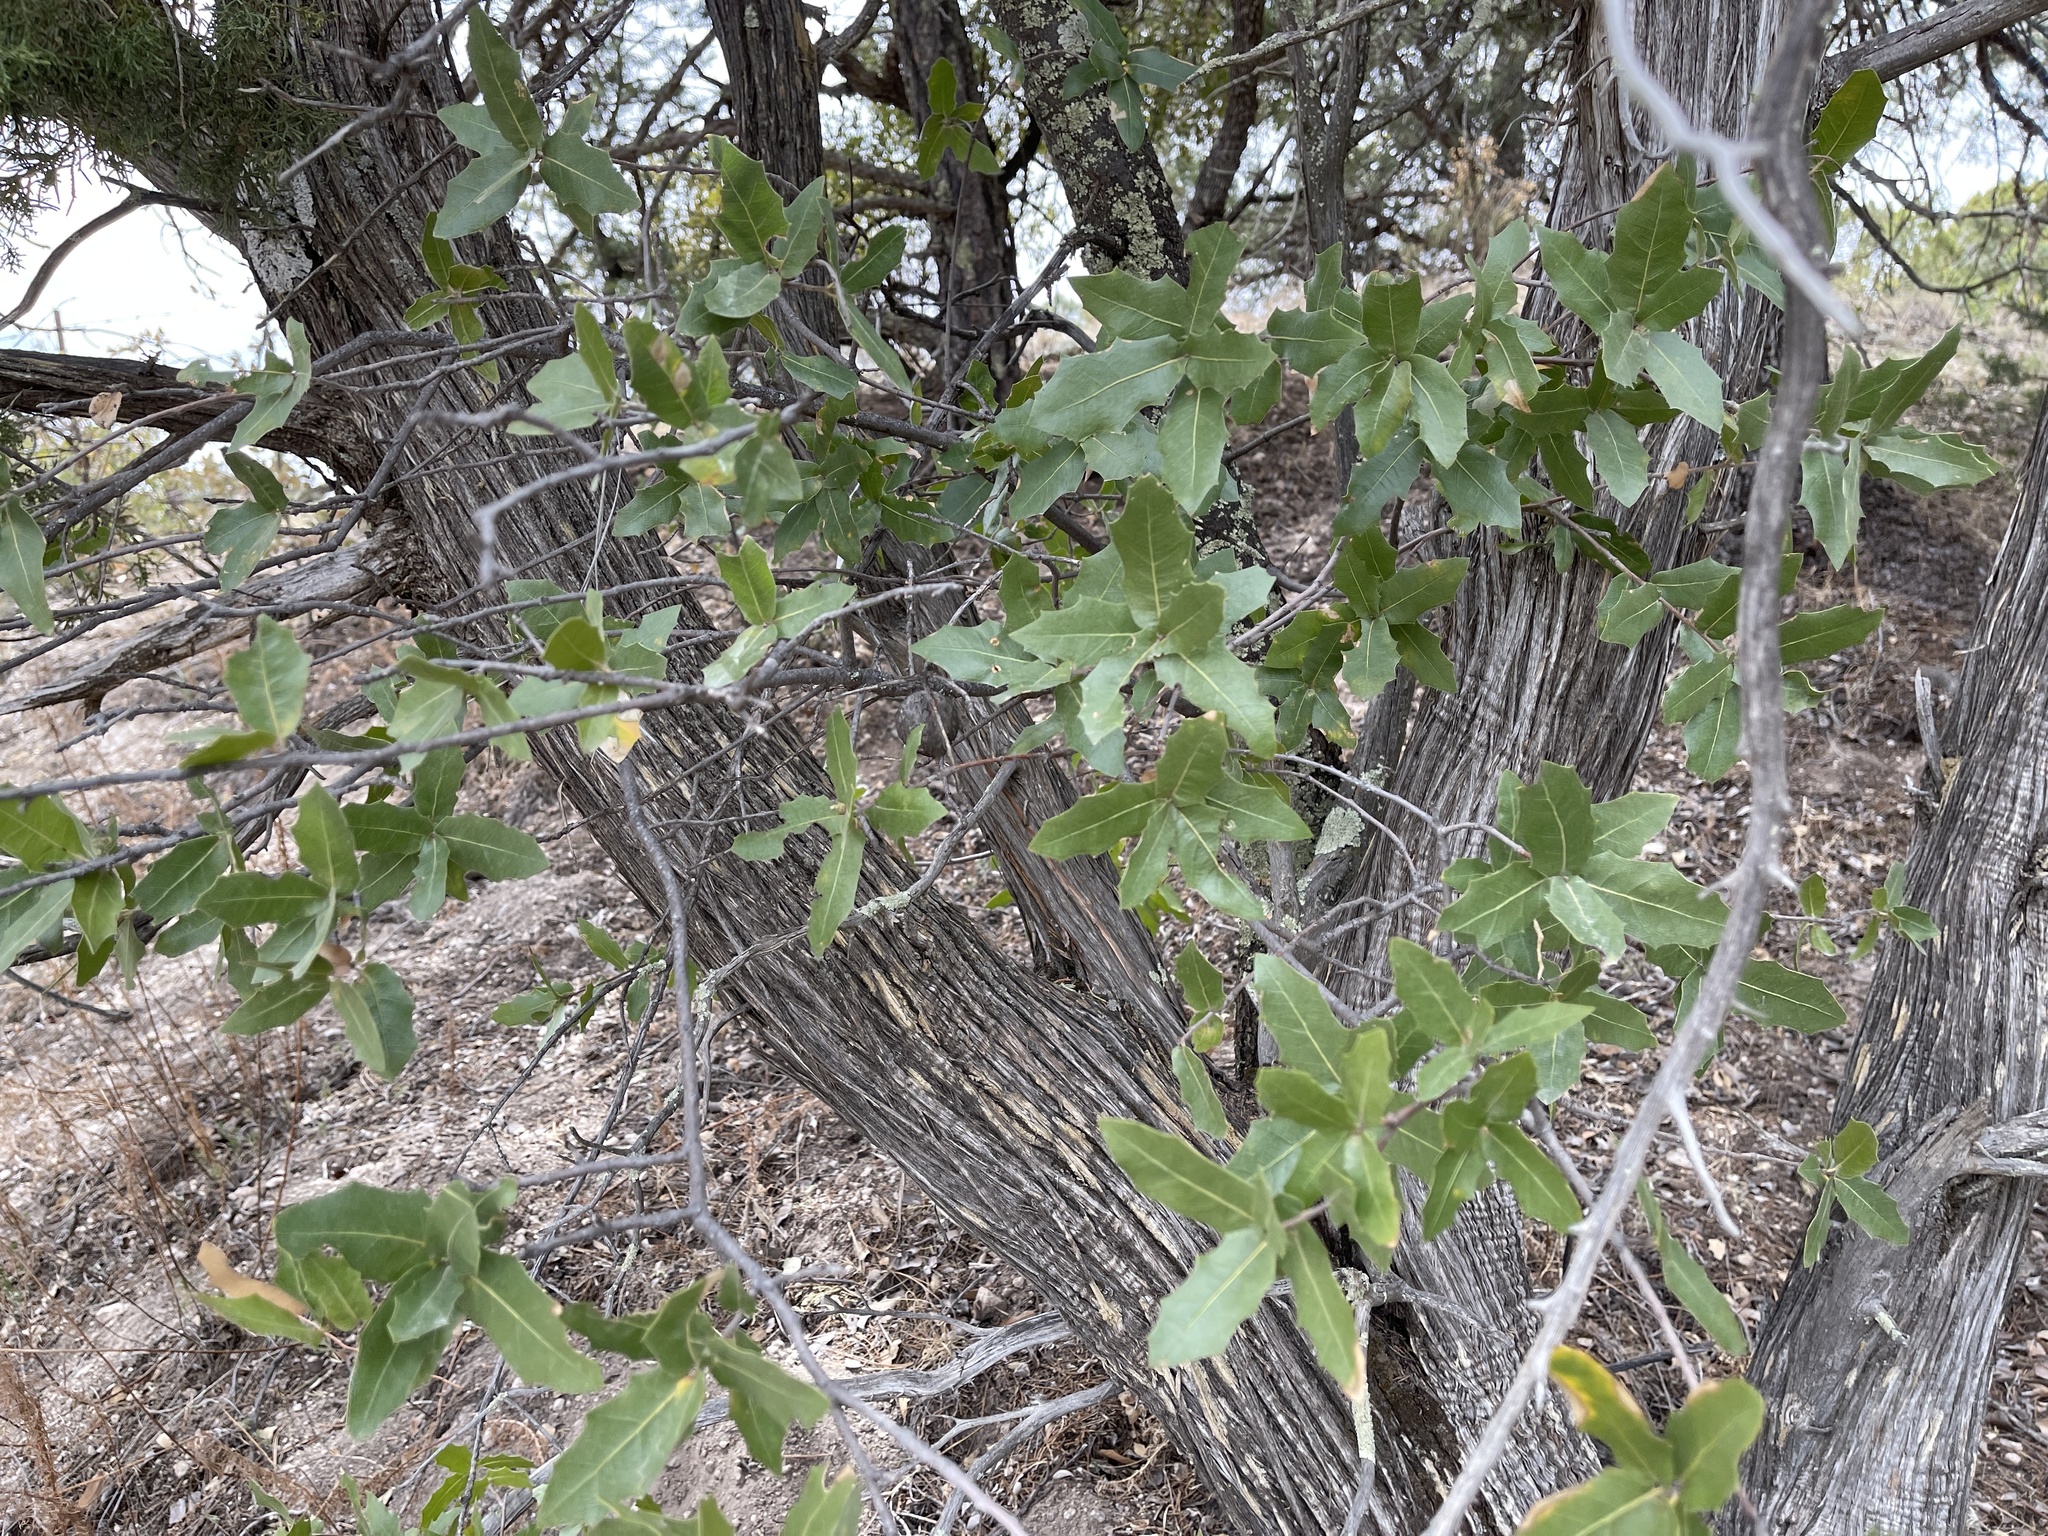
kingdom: Plantae
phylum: Tracheophyta
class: Magnoliopsida
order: Fagales
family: Fagaceae
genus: Quercus
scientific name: Quercus emoryi
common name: Emory oak
